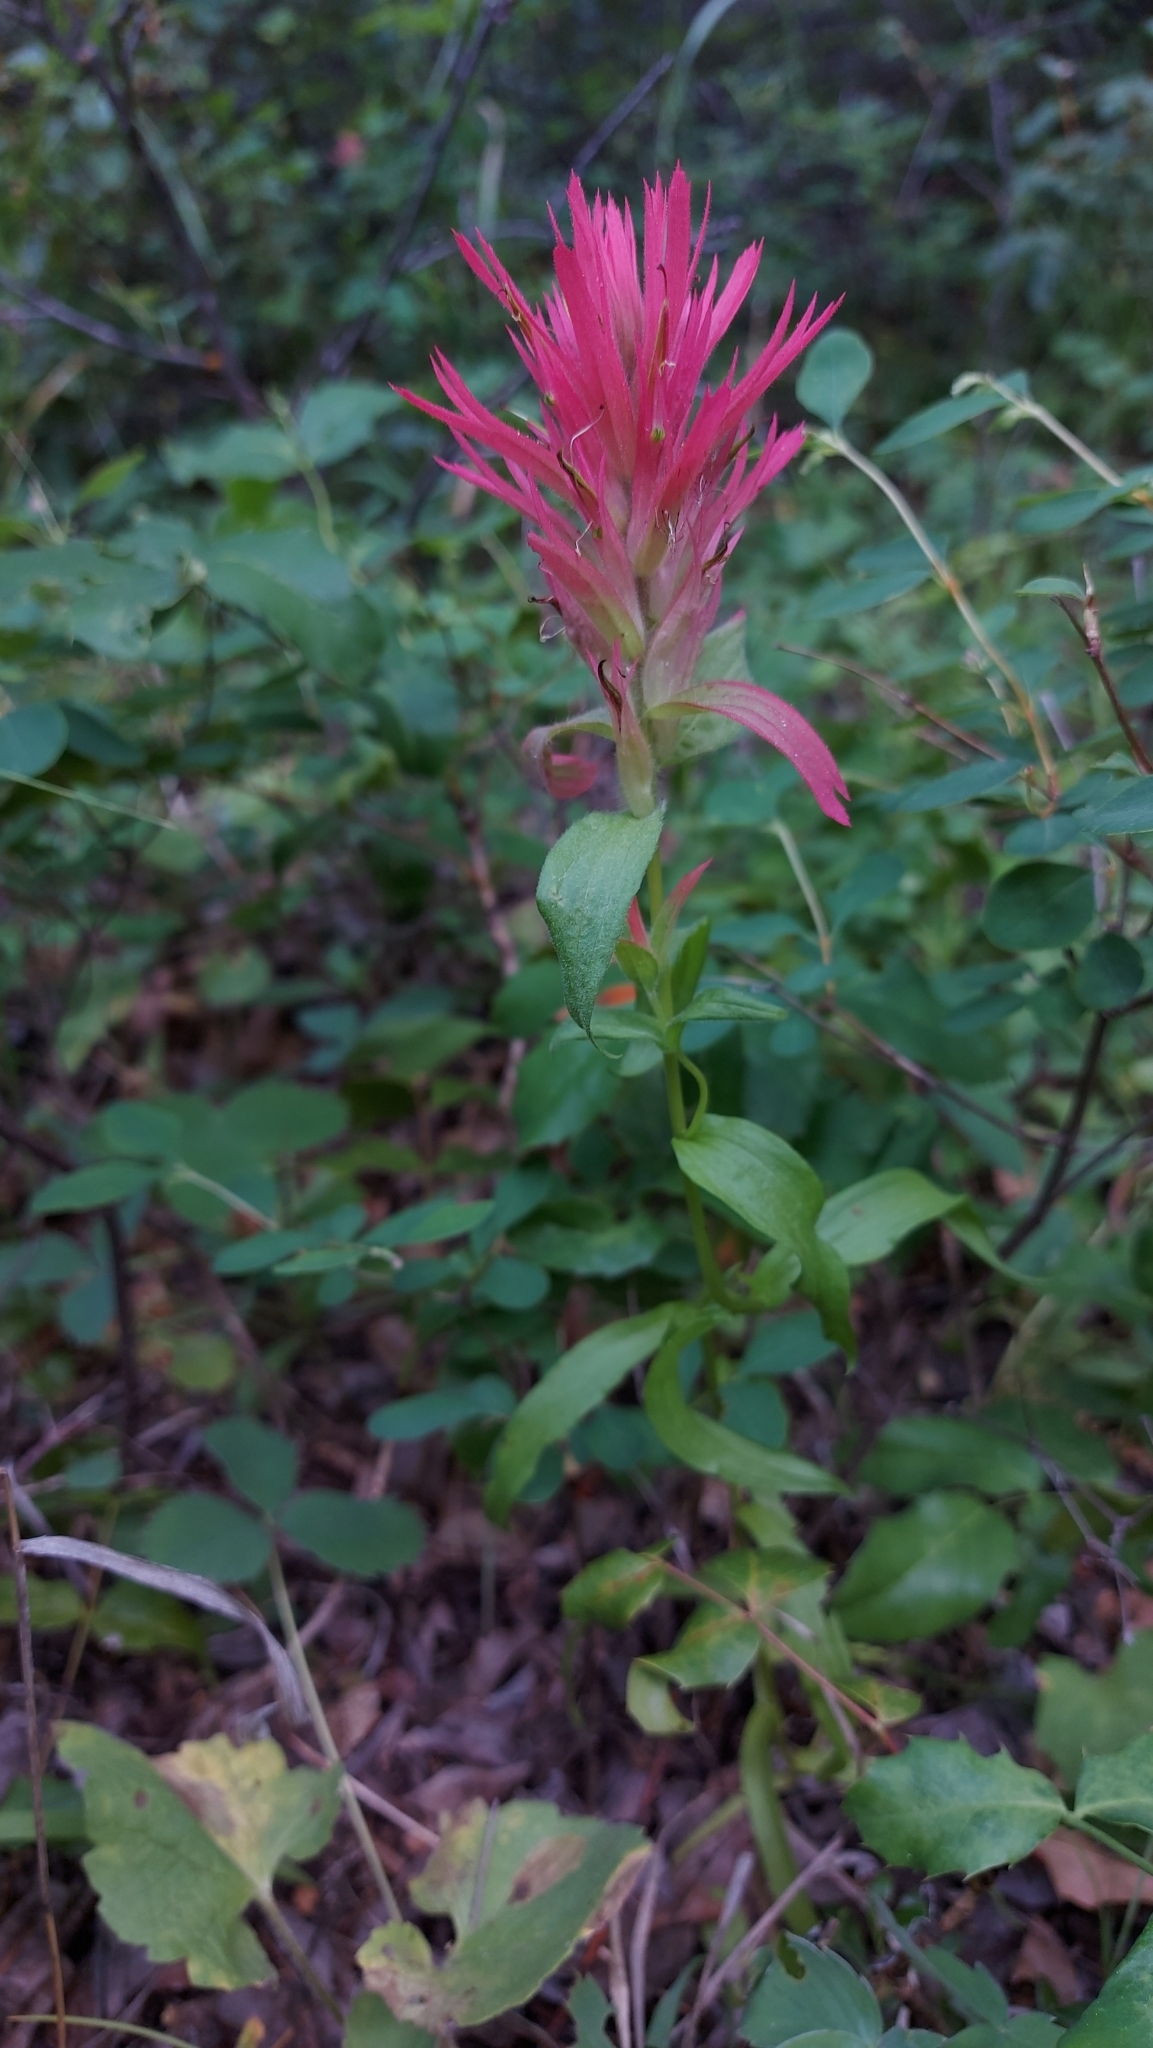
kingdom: Plantae
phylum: Tracheophyta
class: Magnoliopsida
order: Lamiales
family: Orobanchaceae
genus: Castilleja
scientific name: Castilleja miniata
